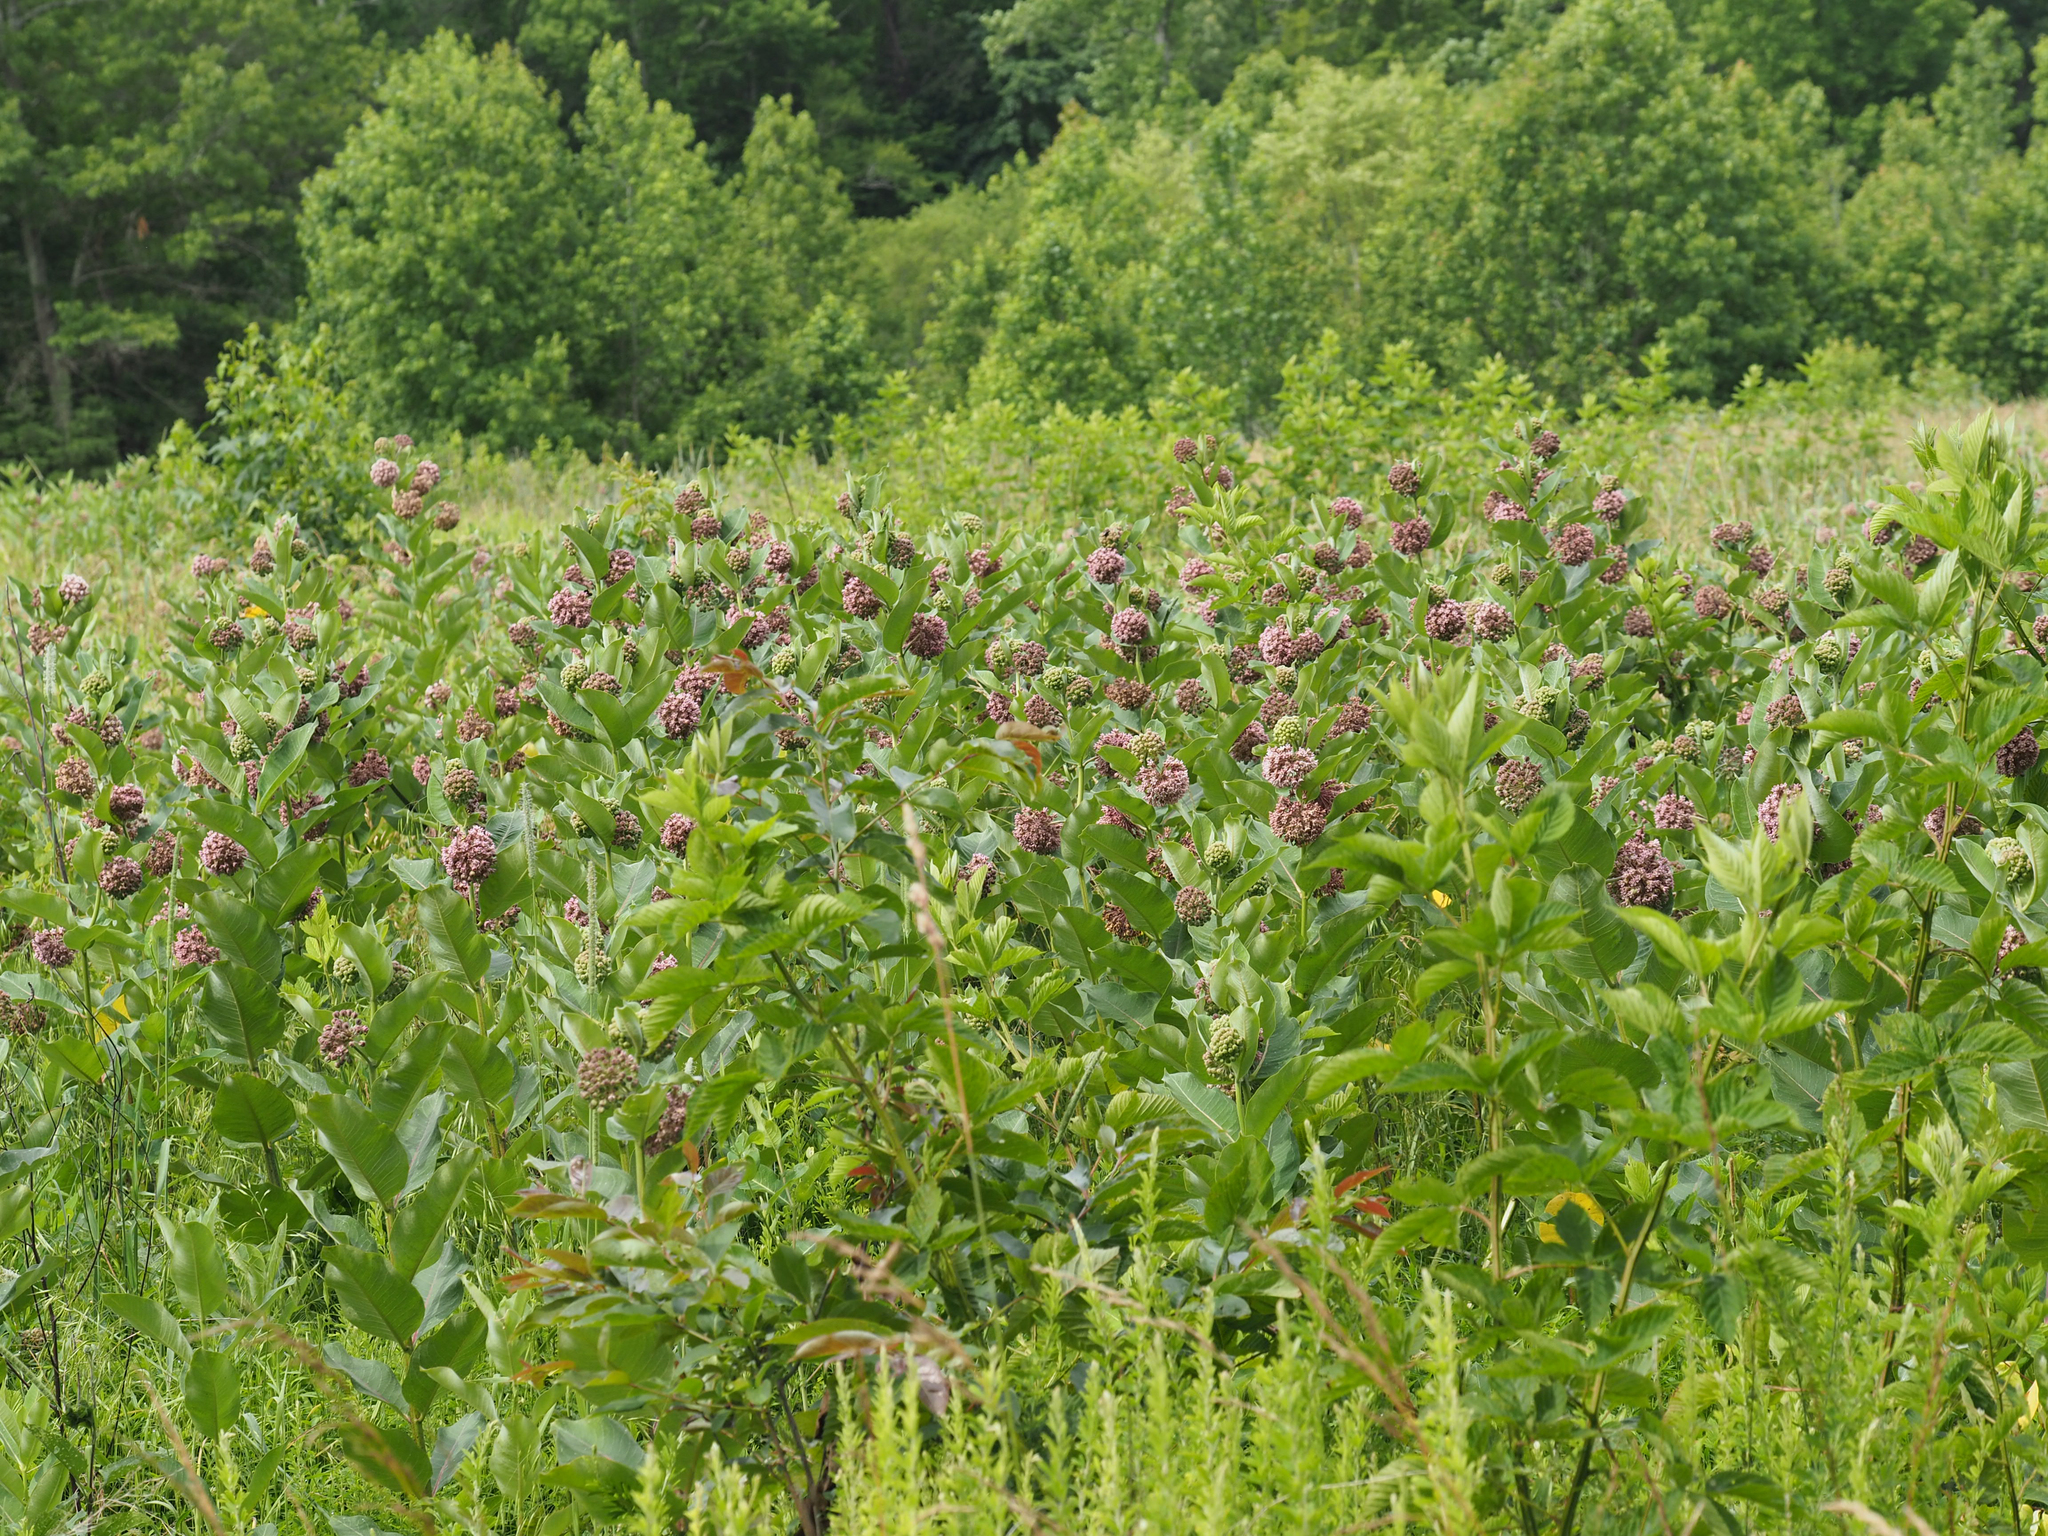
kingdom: Plantae
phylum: Tracheophyta
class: Magnoliopsida
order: Gentianales
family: Apocynaceae
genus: Asclepias
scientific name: Asclepias syriaca
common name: Common milkweed
